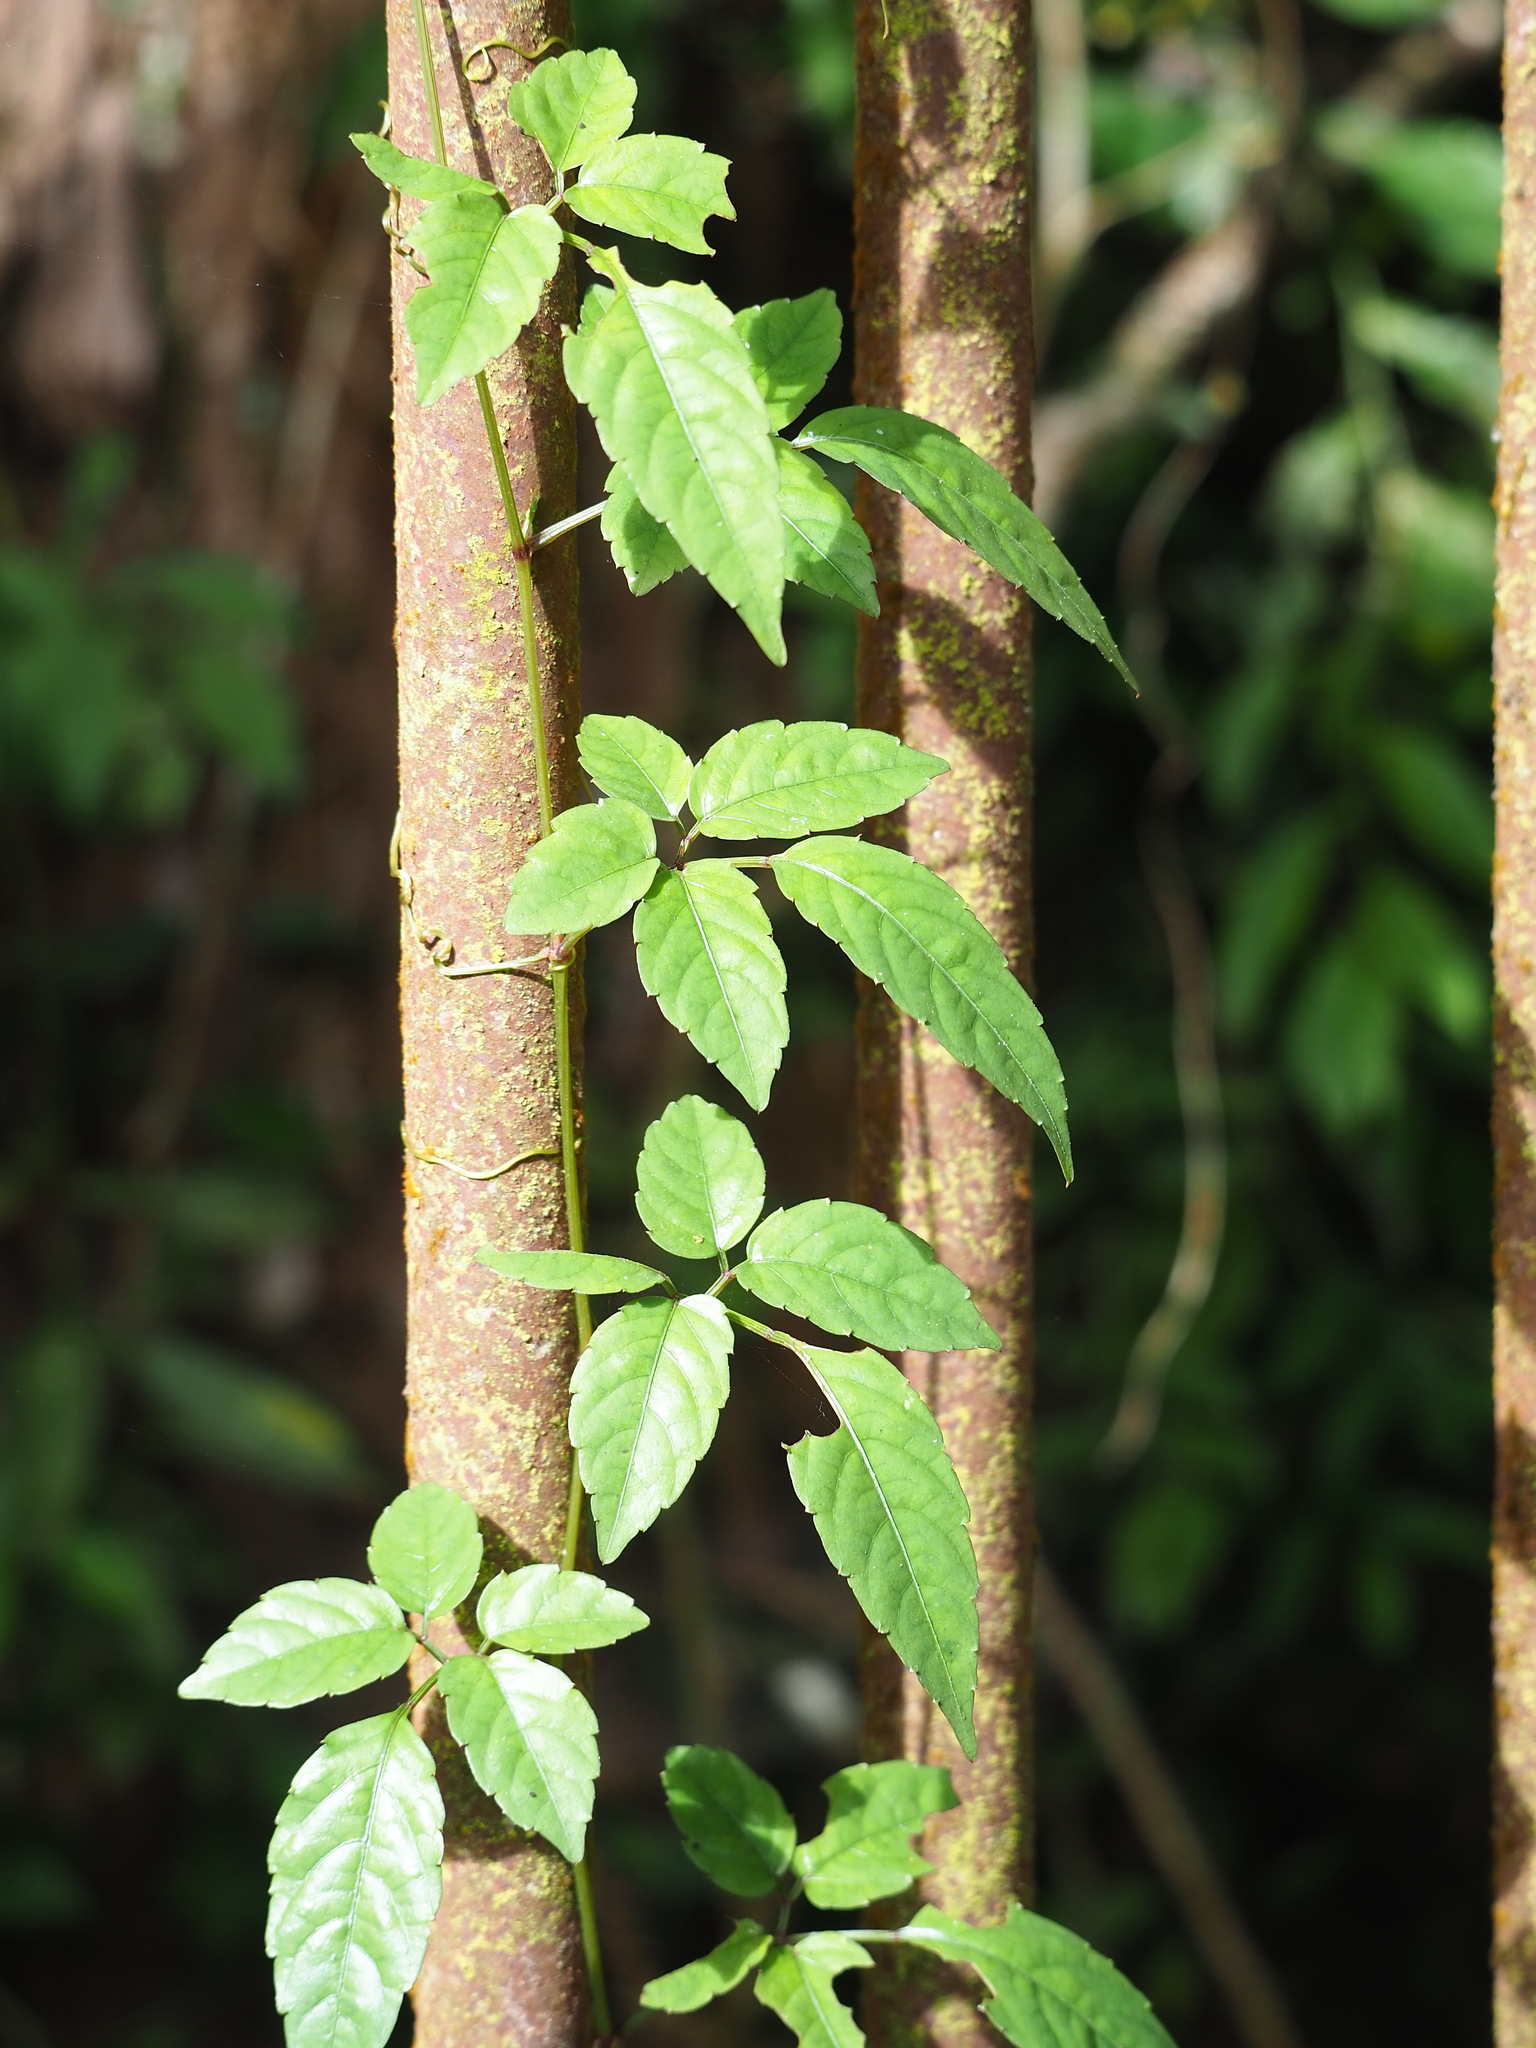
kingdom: Plantae
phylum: Tracheophyta
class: Magnoliopsida
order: Cucurbitales
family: Cucurbitaceae
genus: Gynostemma
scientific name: Gynostemma pentaphyllum
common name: Gynostemma
